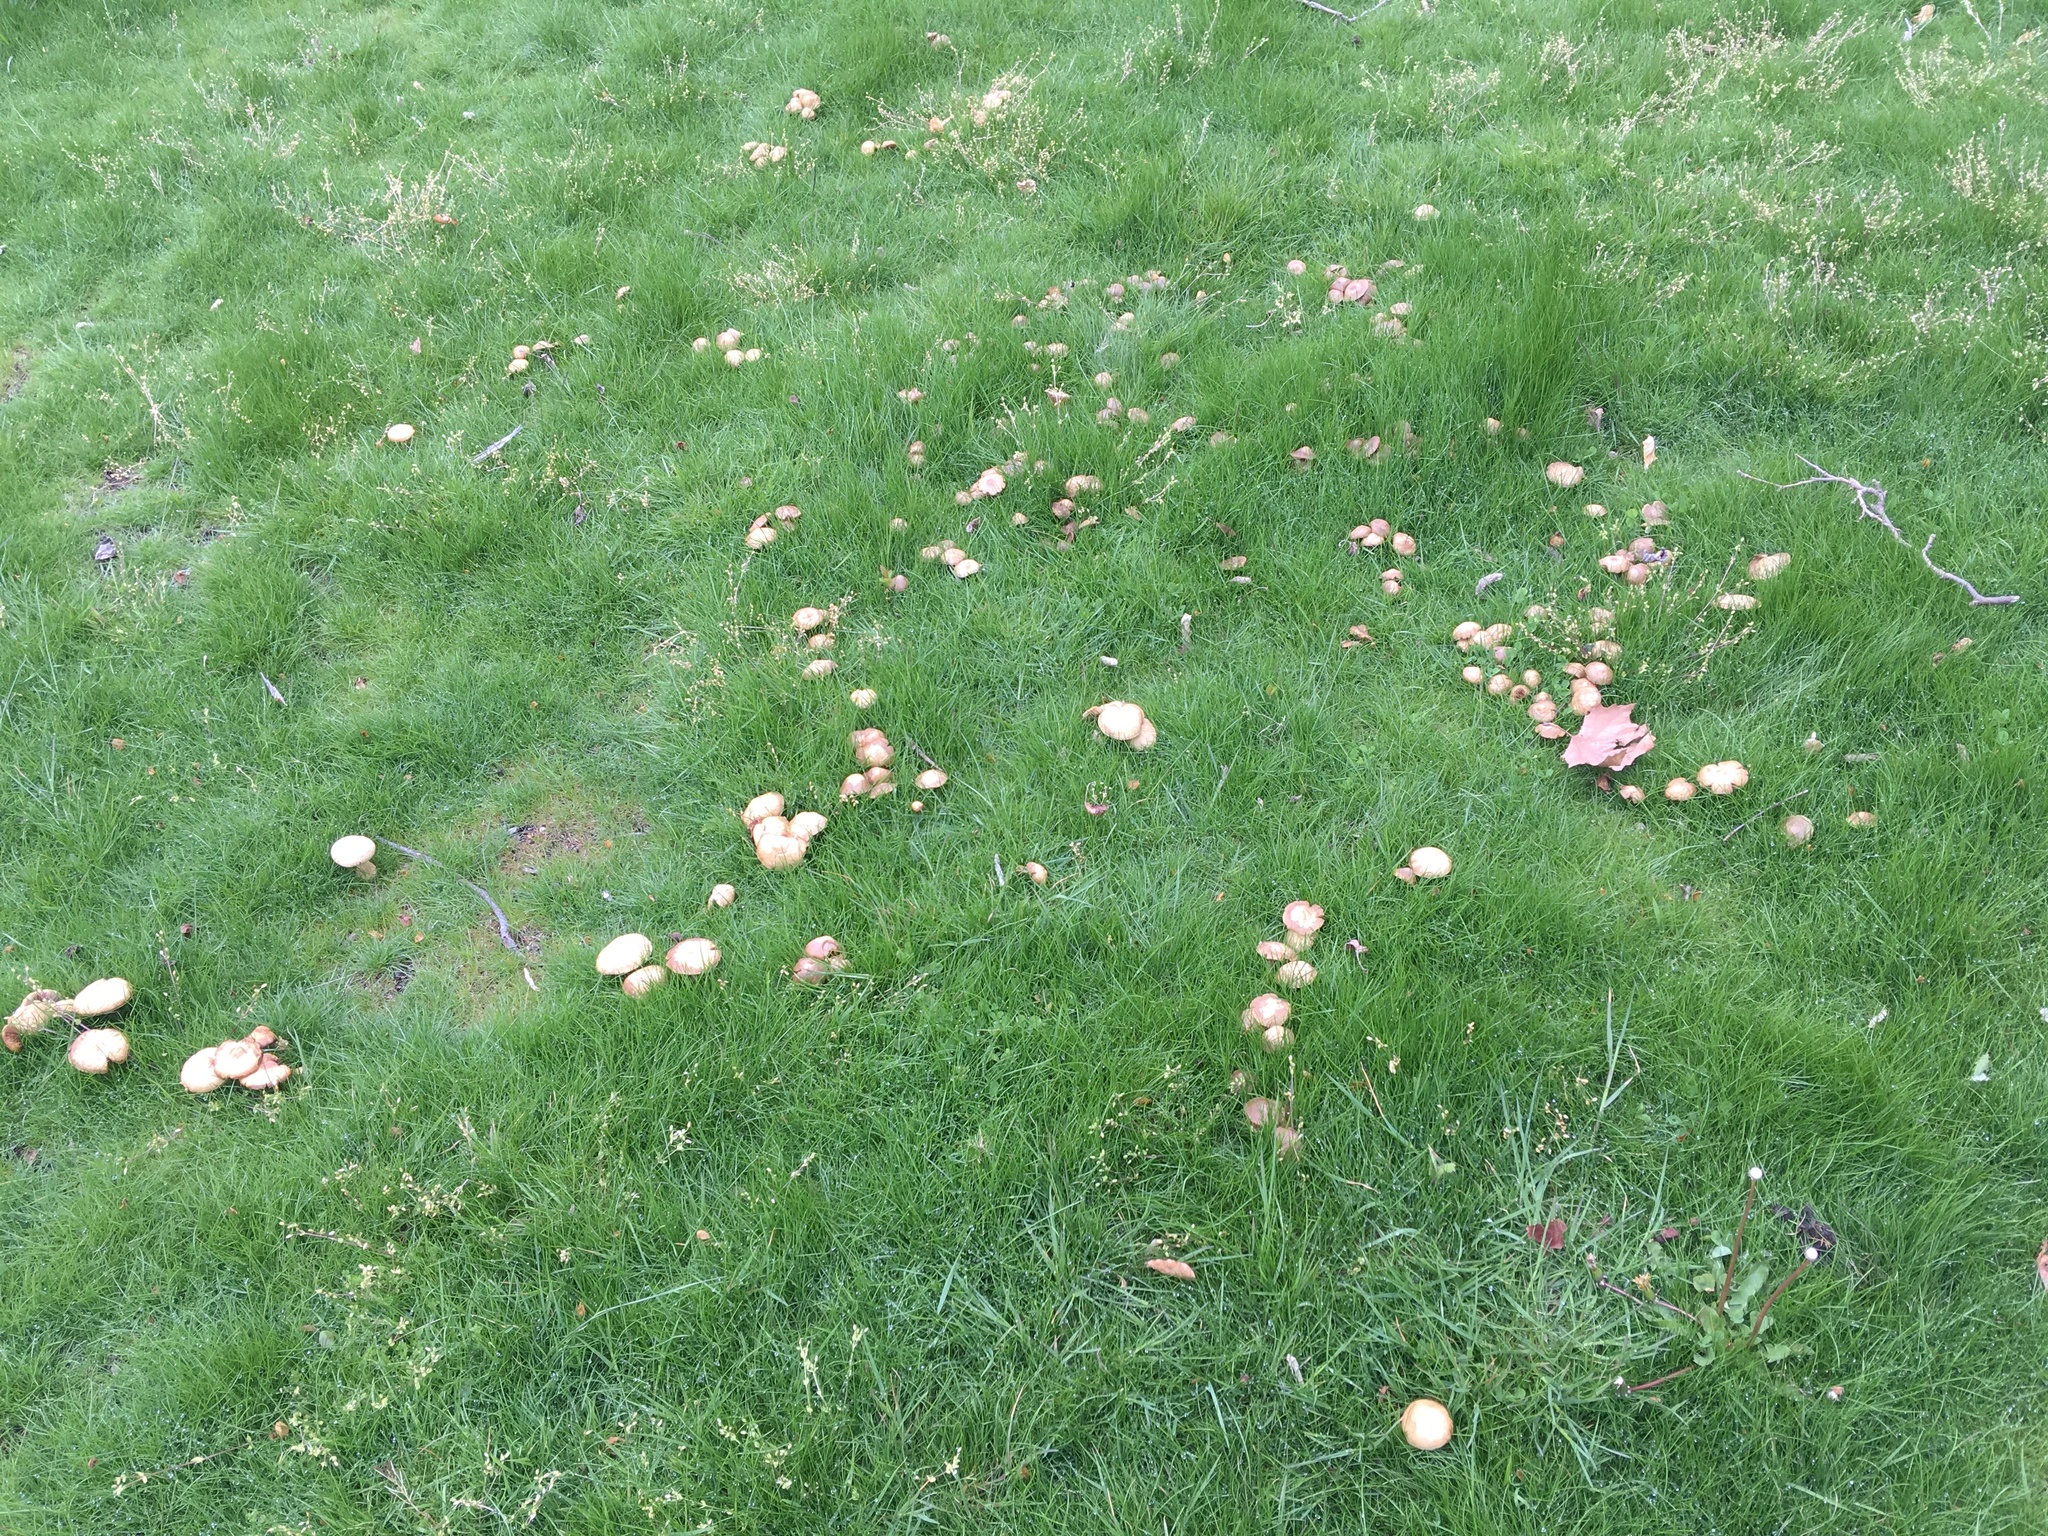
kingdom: Fungi
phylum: Basidiomycota
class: Agaricomycetes
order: Agaricales
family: Strophariaceae
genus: Agrocybe
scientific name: Agrocybe putaminum
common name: Mulch fieldcap
